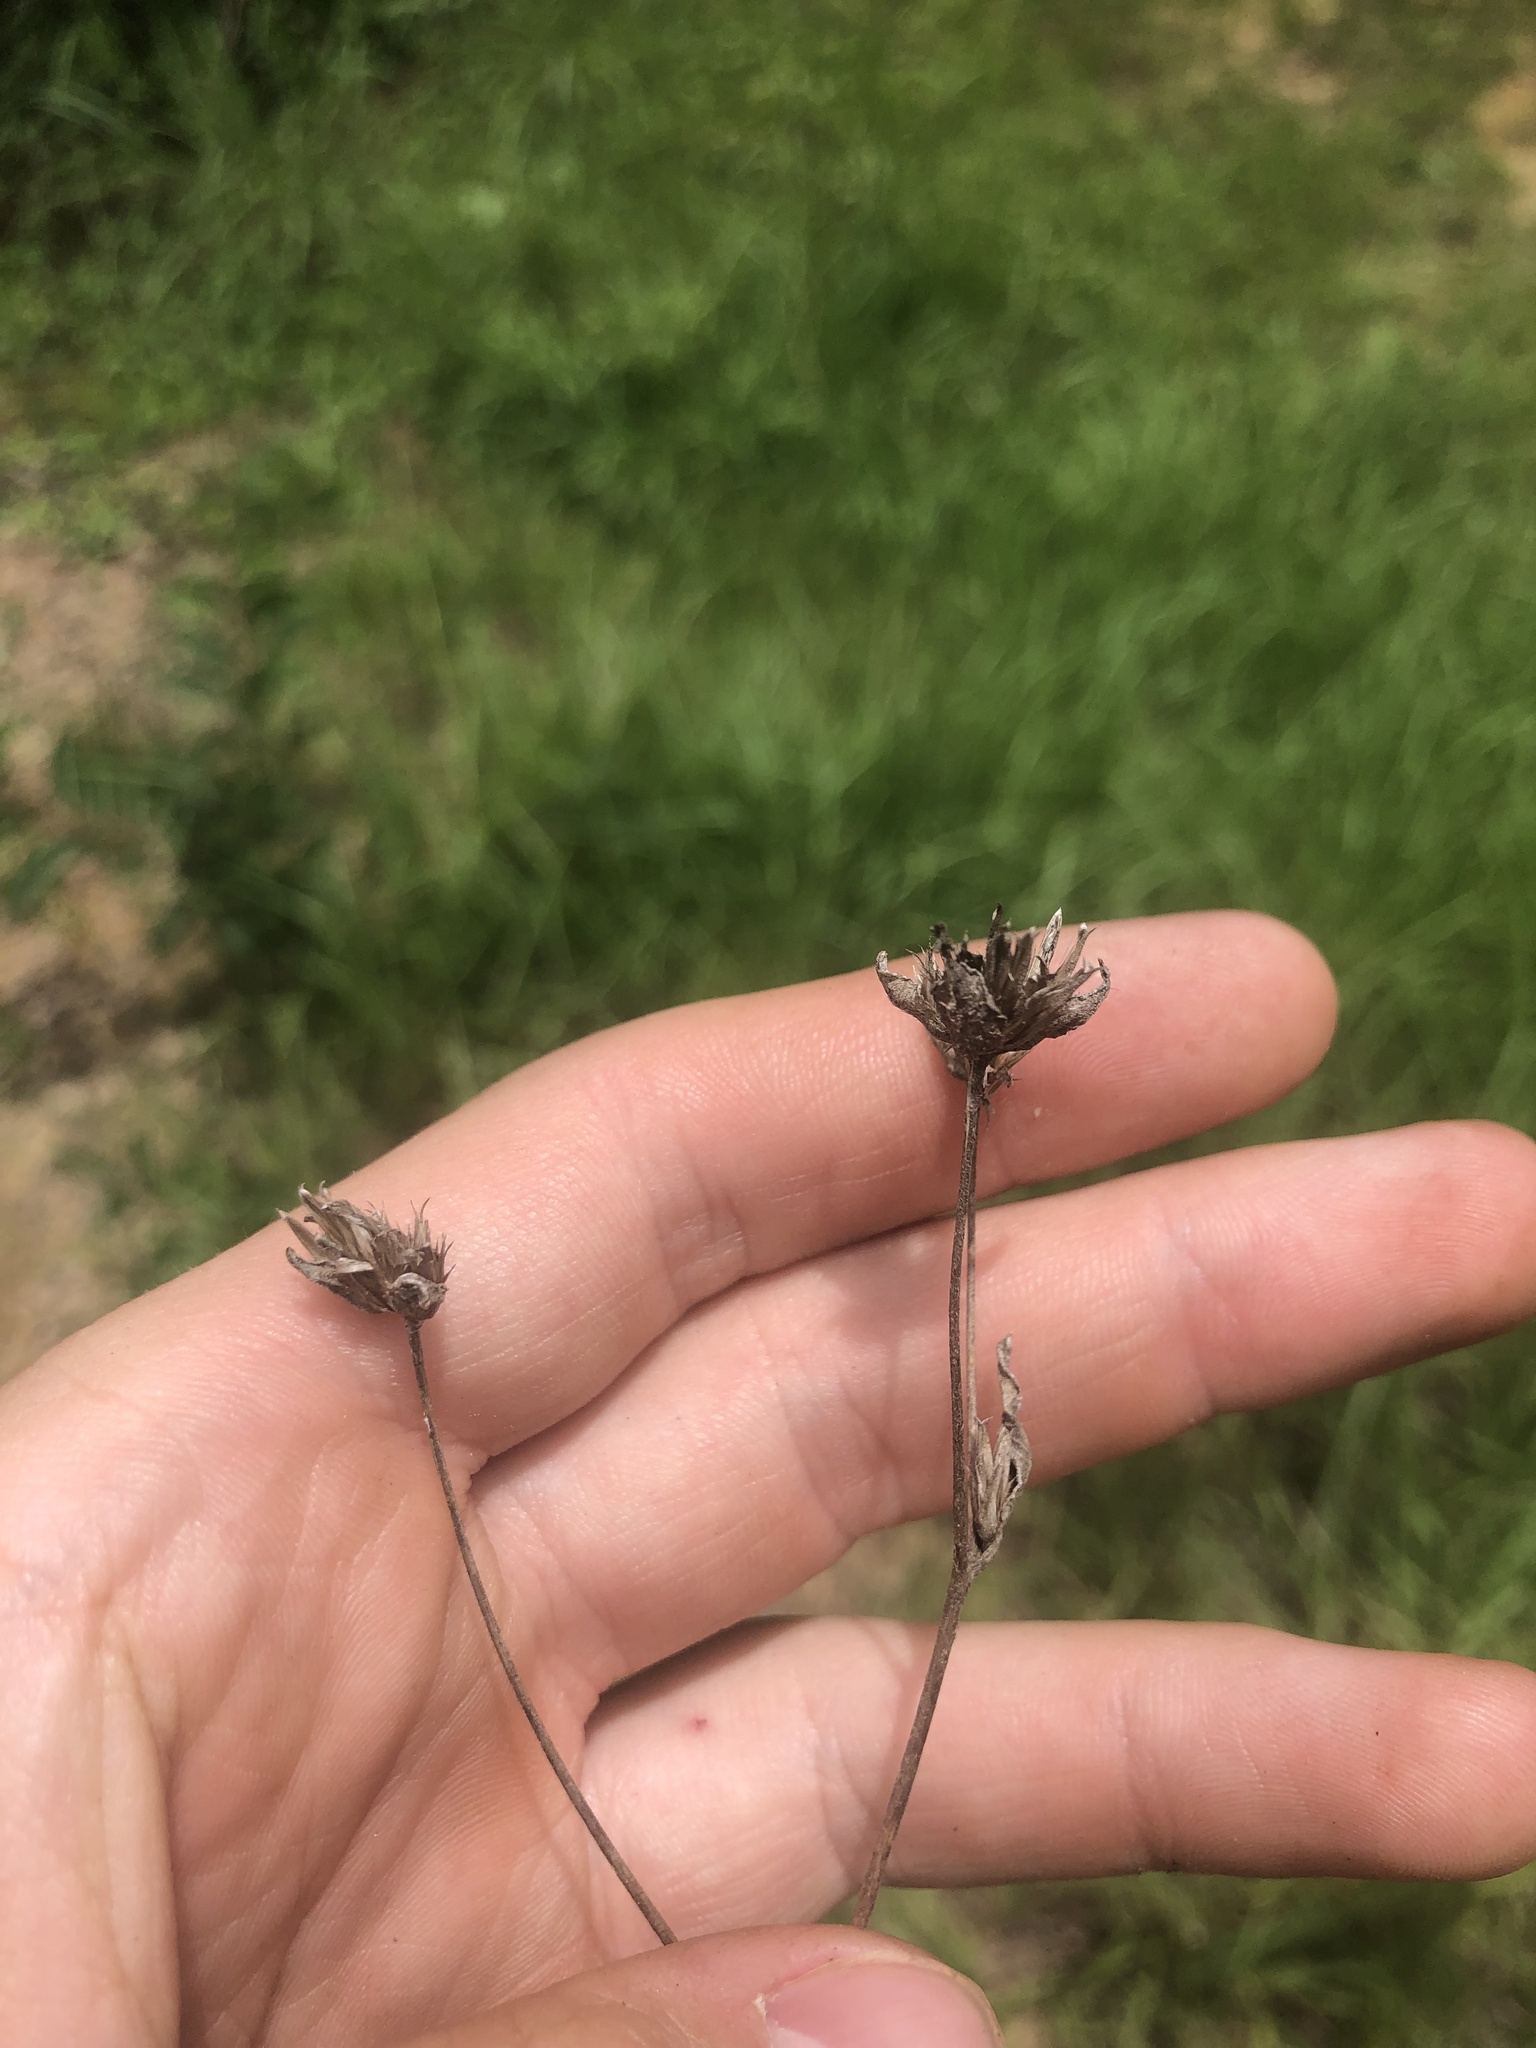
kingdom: Plantae
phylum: Tracheophyta
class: Magnoliopsida
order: Asterales
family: Asteraceae
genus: Elephantopus
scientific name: Elephantopus nudatus
